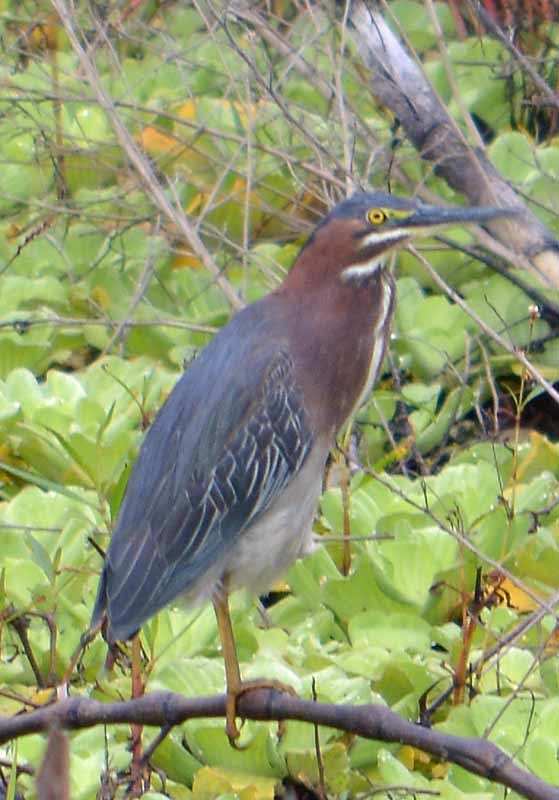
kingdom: Animalia
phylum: Chordata
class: Aves
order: Pelecaniformes
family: Ardeidae
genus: Butorides
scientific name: Butorides virescens
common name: Green heron
